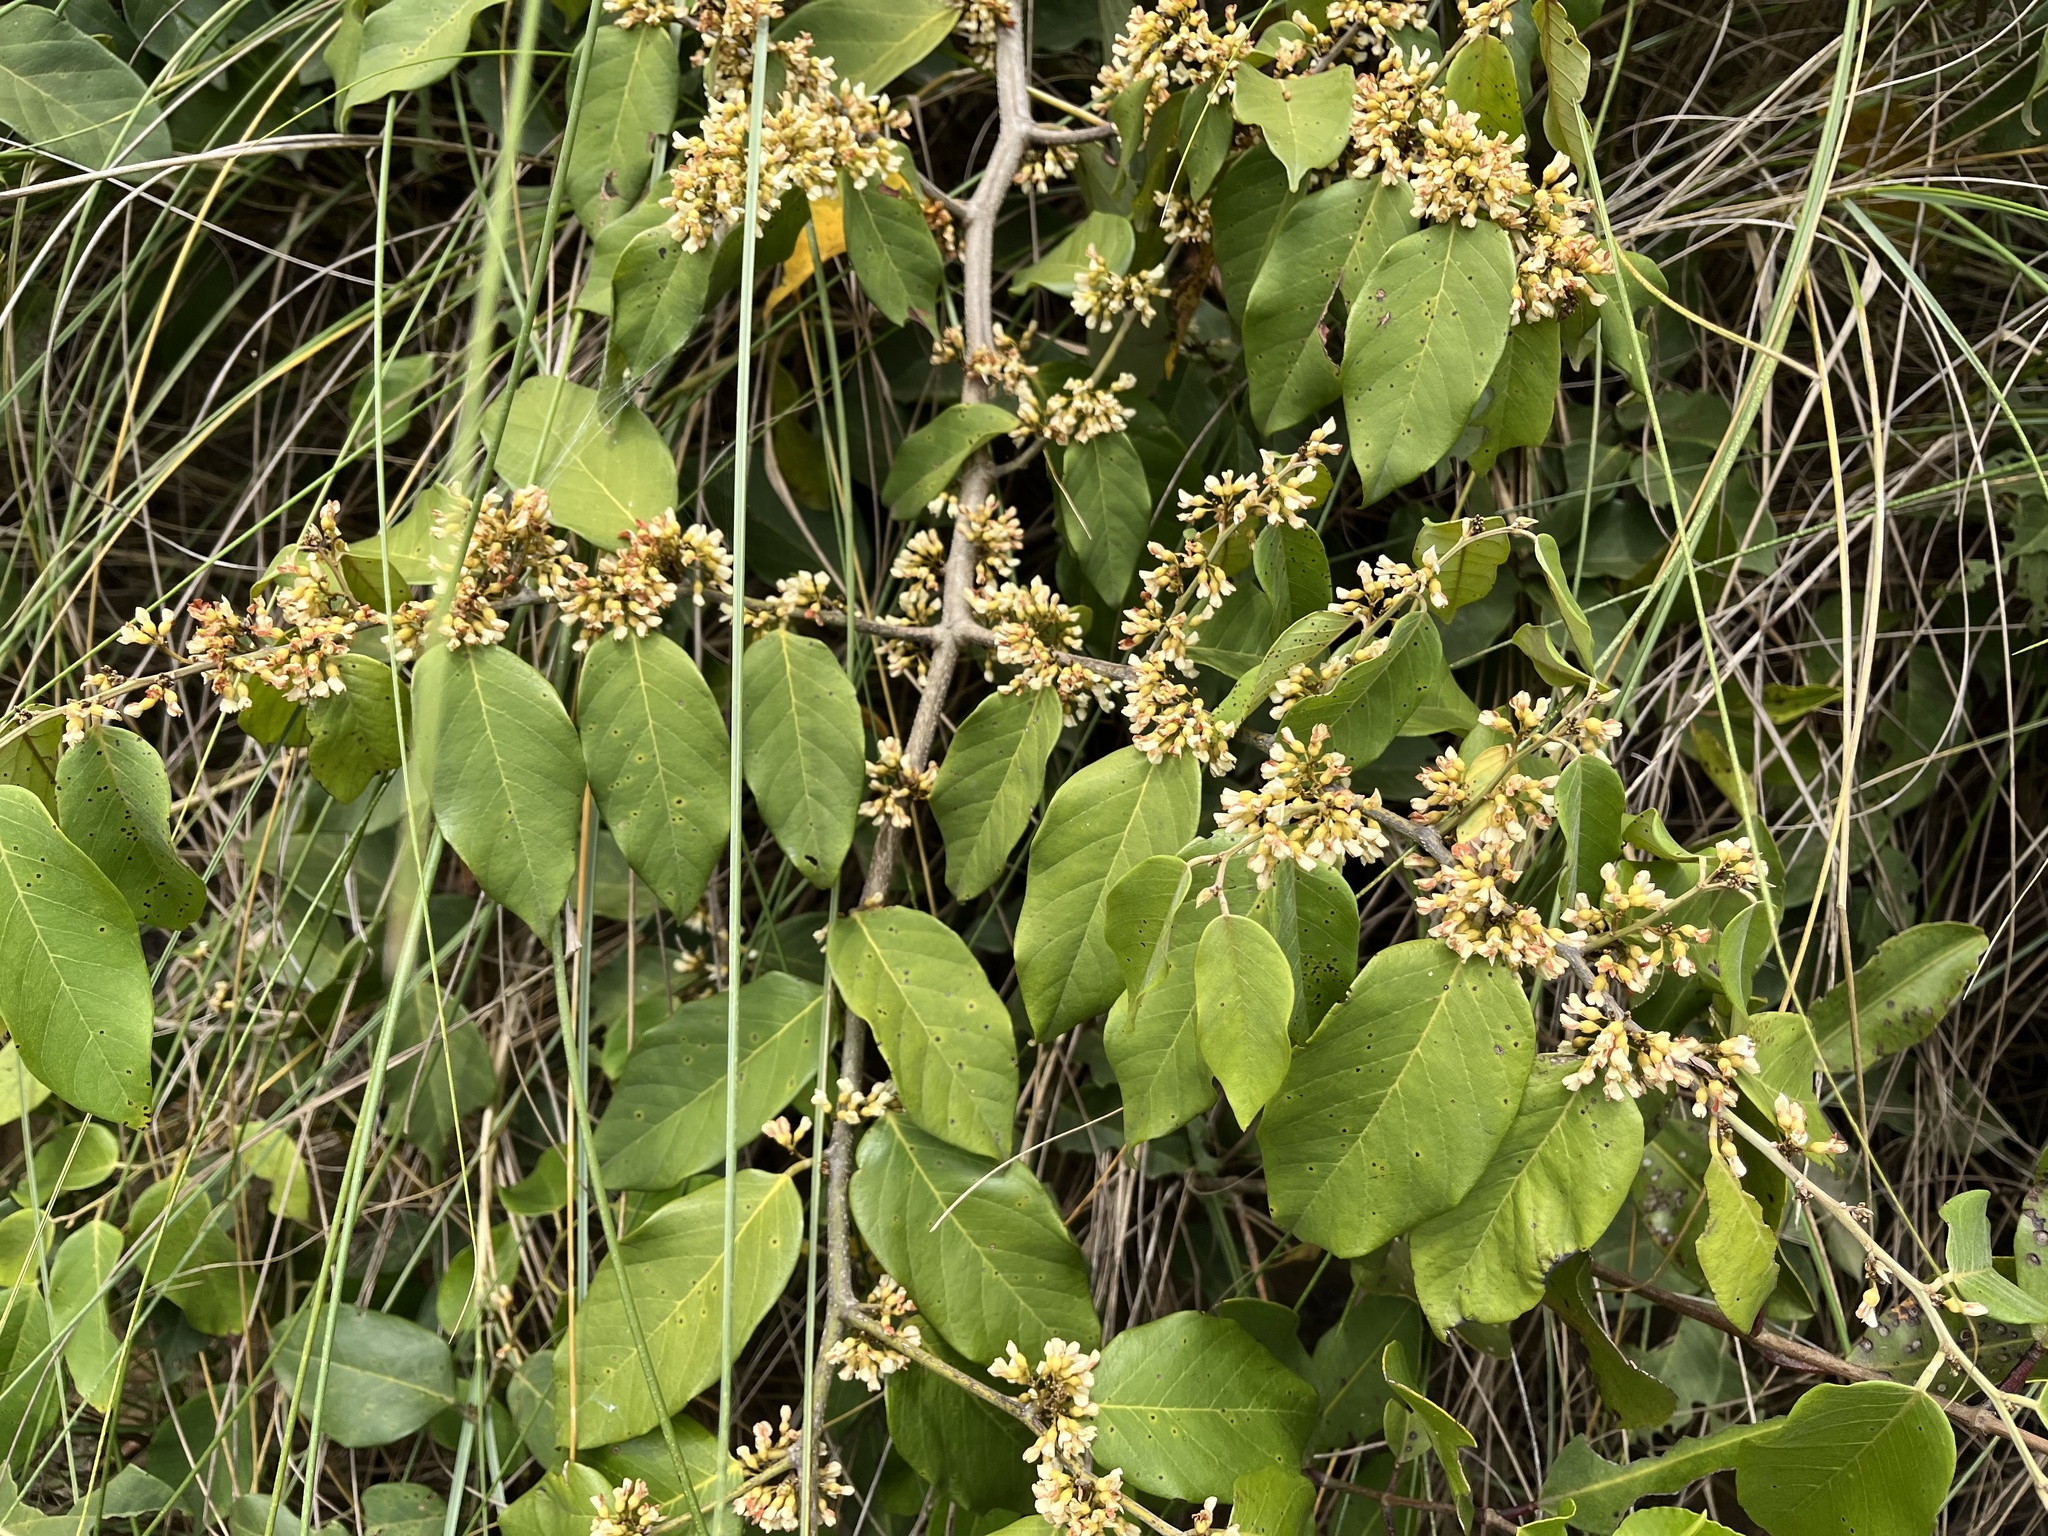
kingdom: Plantae
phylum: Tracheophyta
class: Magnoliopsida
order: Fabales
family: Fabaceae
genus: Dalbergia
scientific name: Dalbergia ecastaphyllum
